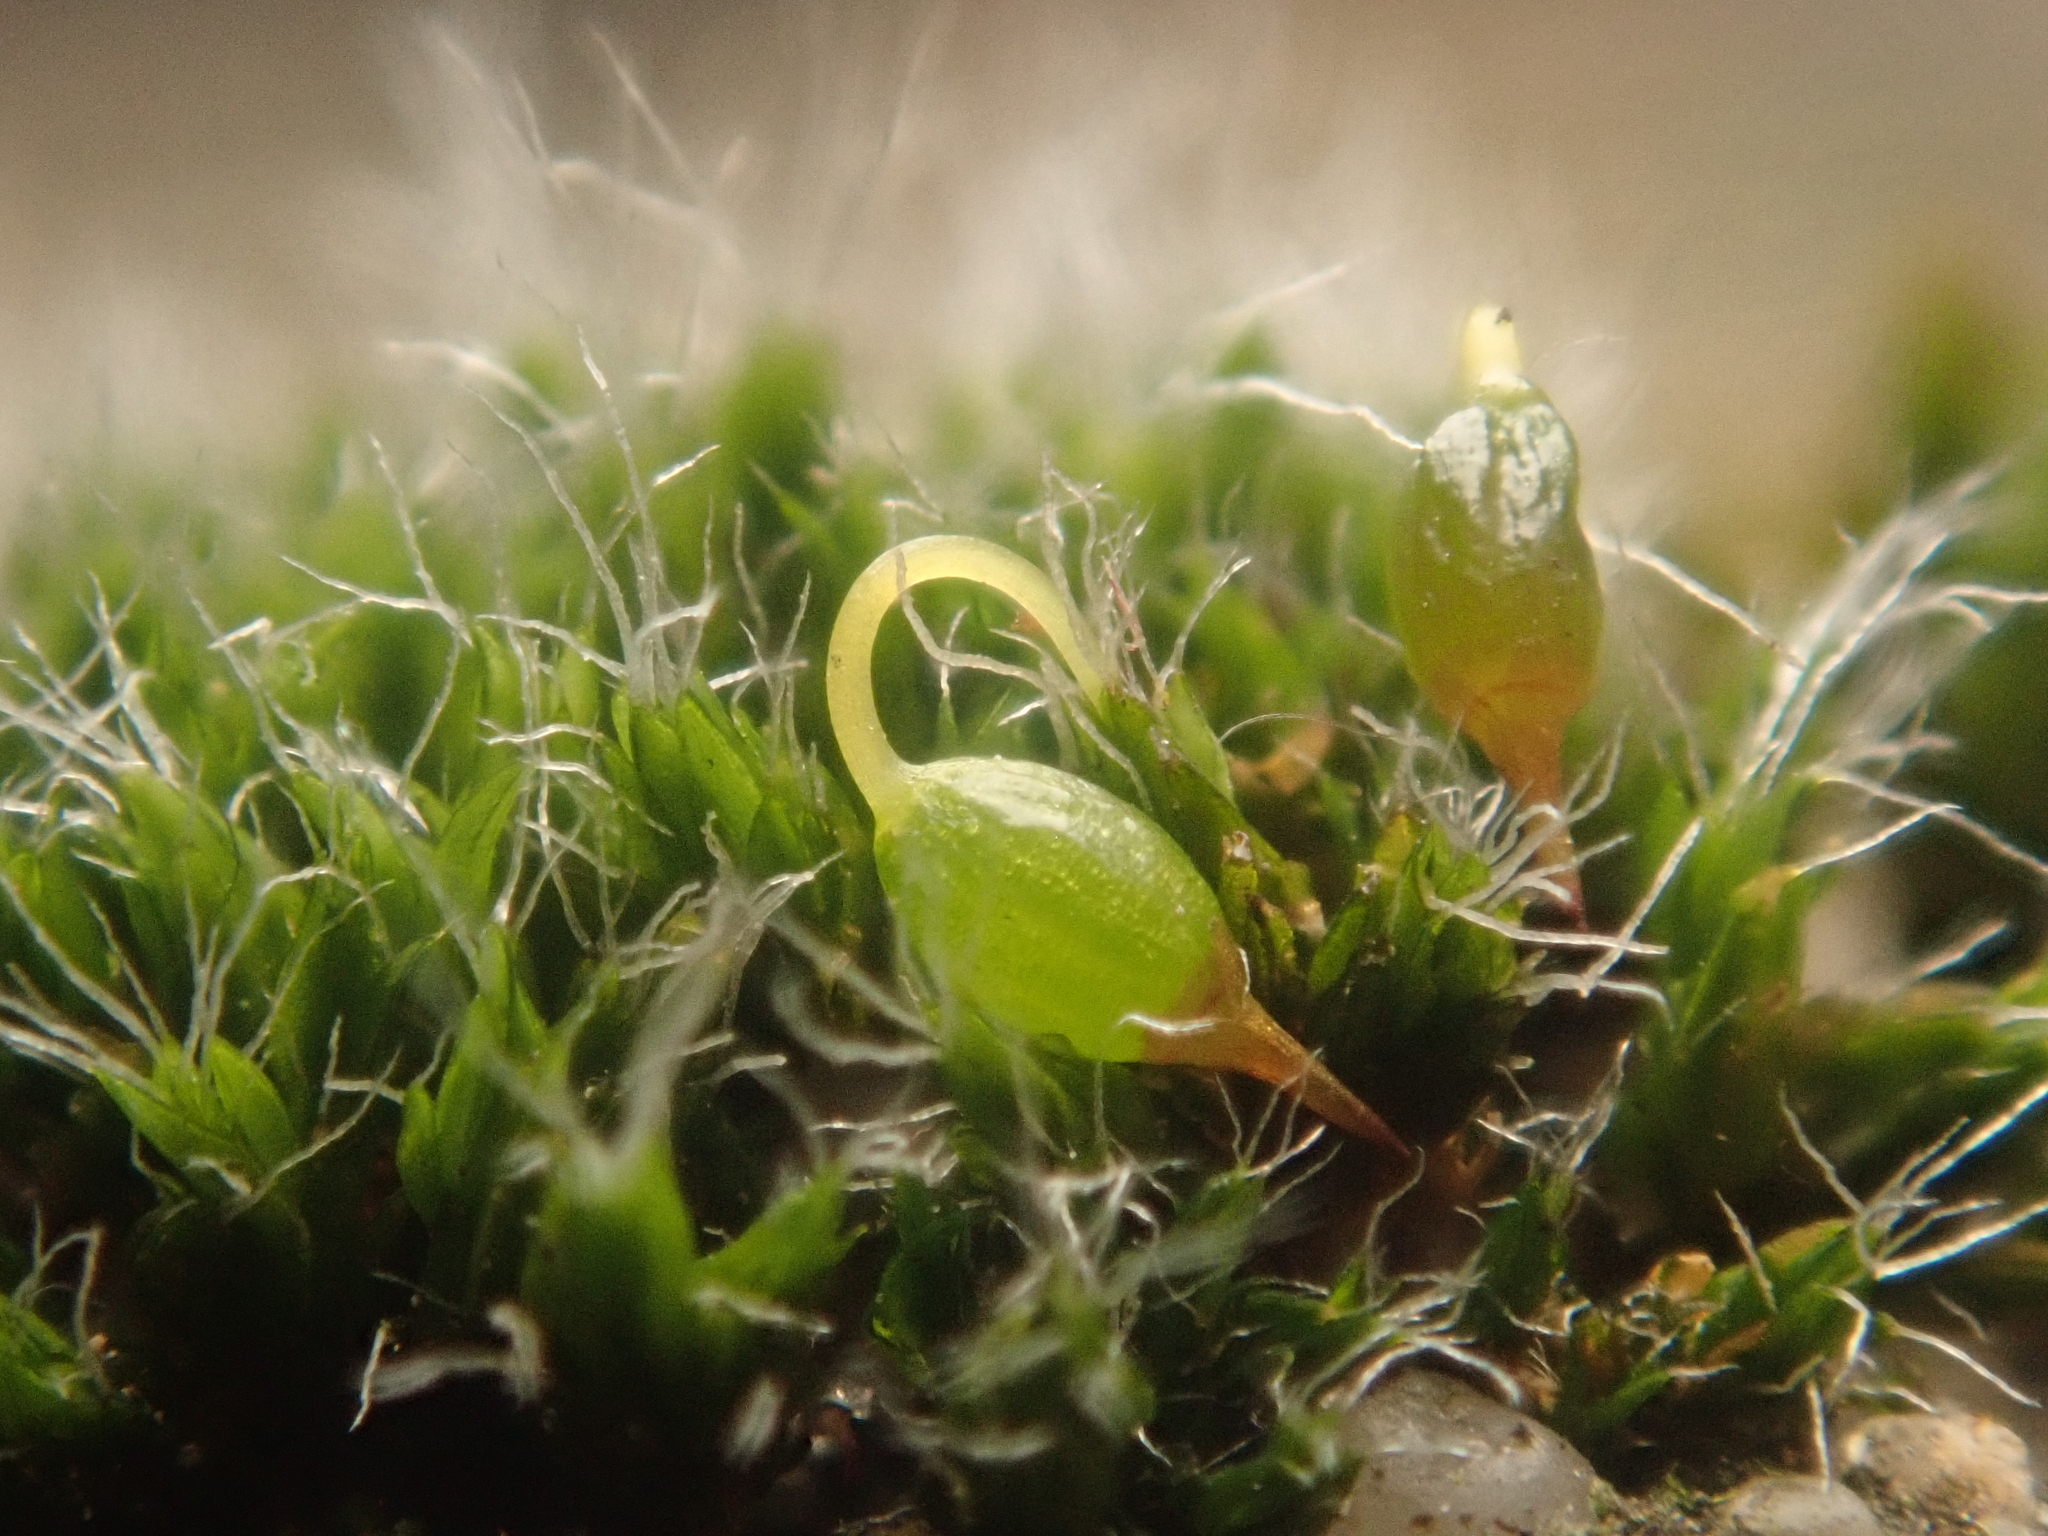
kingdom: Plantae
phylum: Bryophyta
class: Bryopsida
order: Grimmiales
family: Grimmiaceae
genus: Grimmia
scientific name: Grimmia pulvinata
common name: Grey-cushioned grimmia
